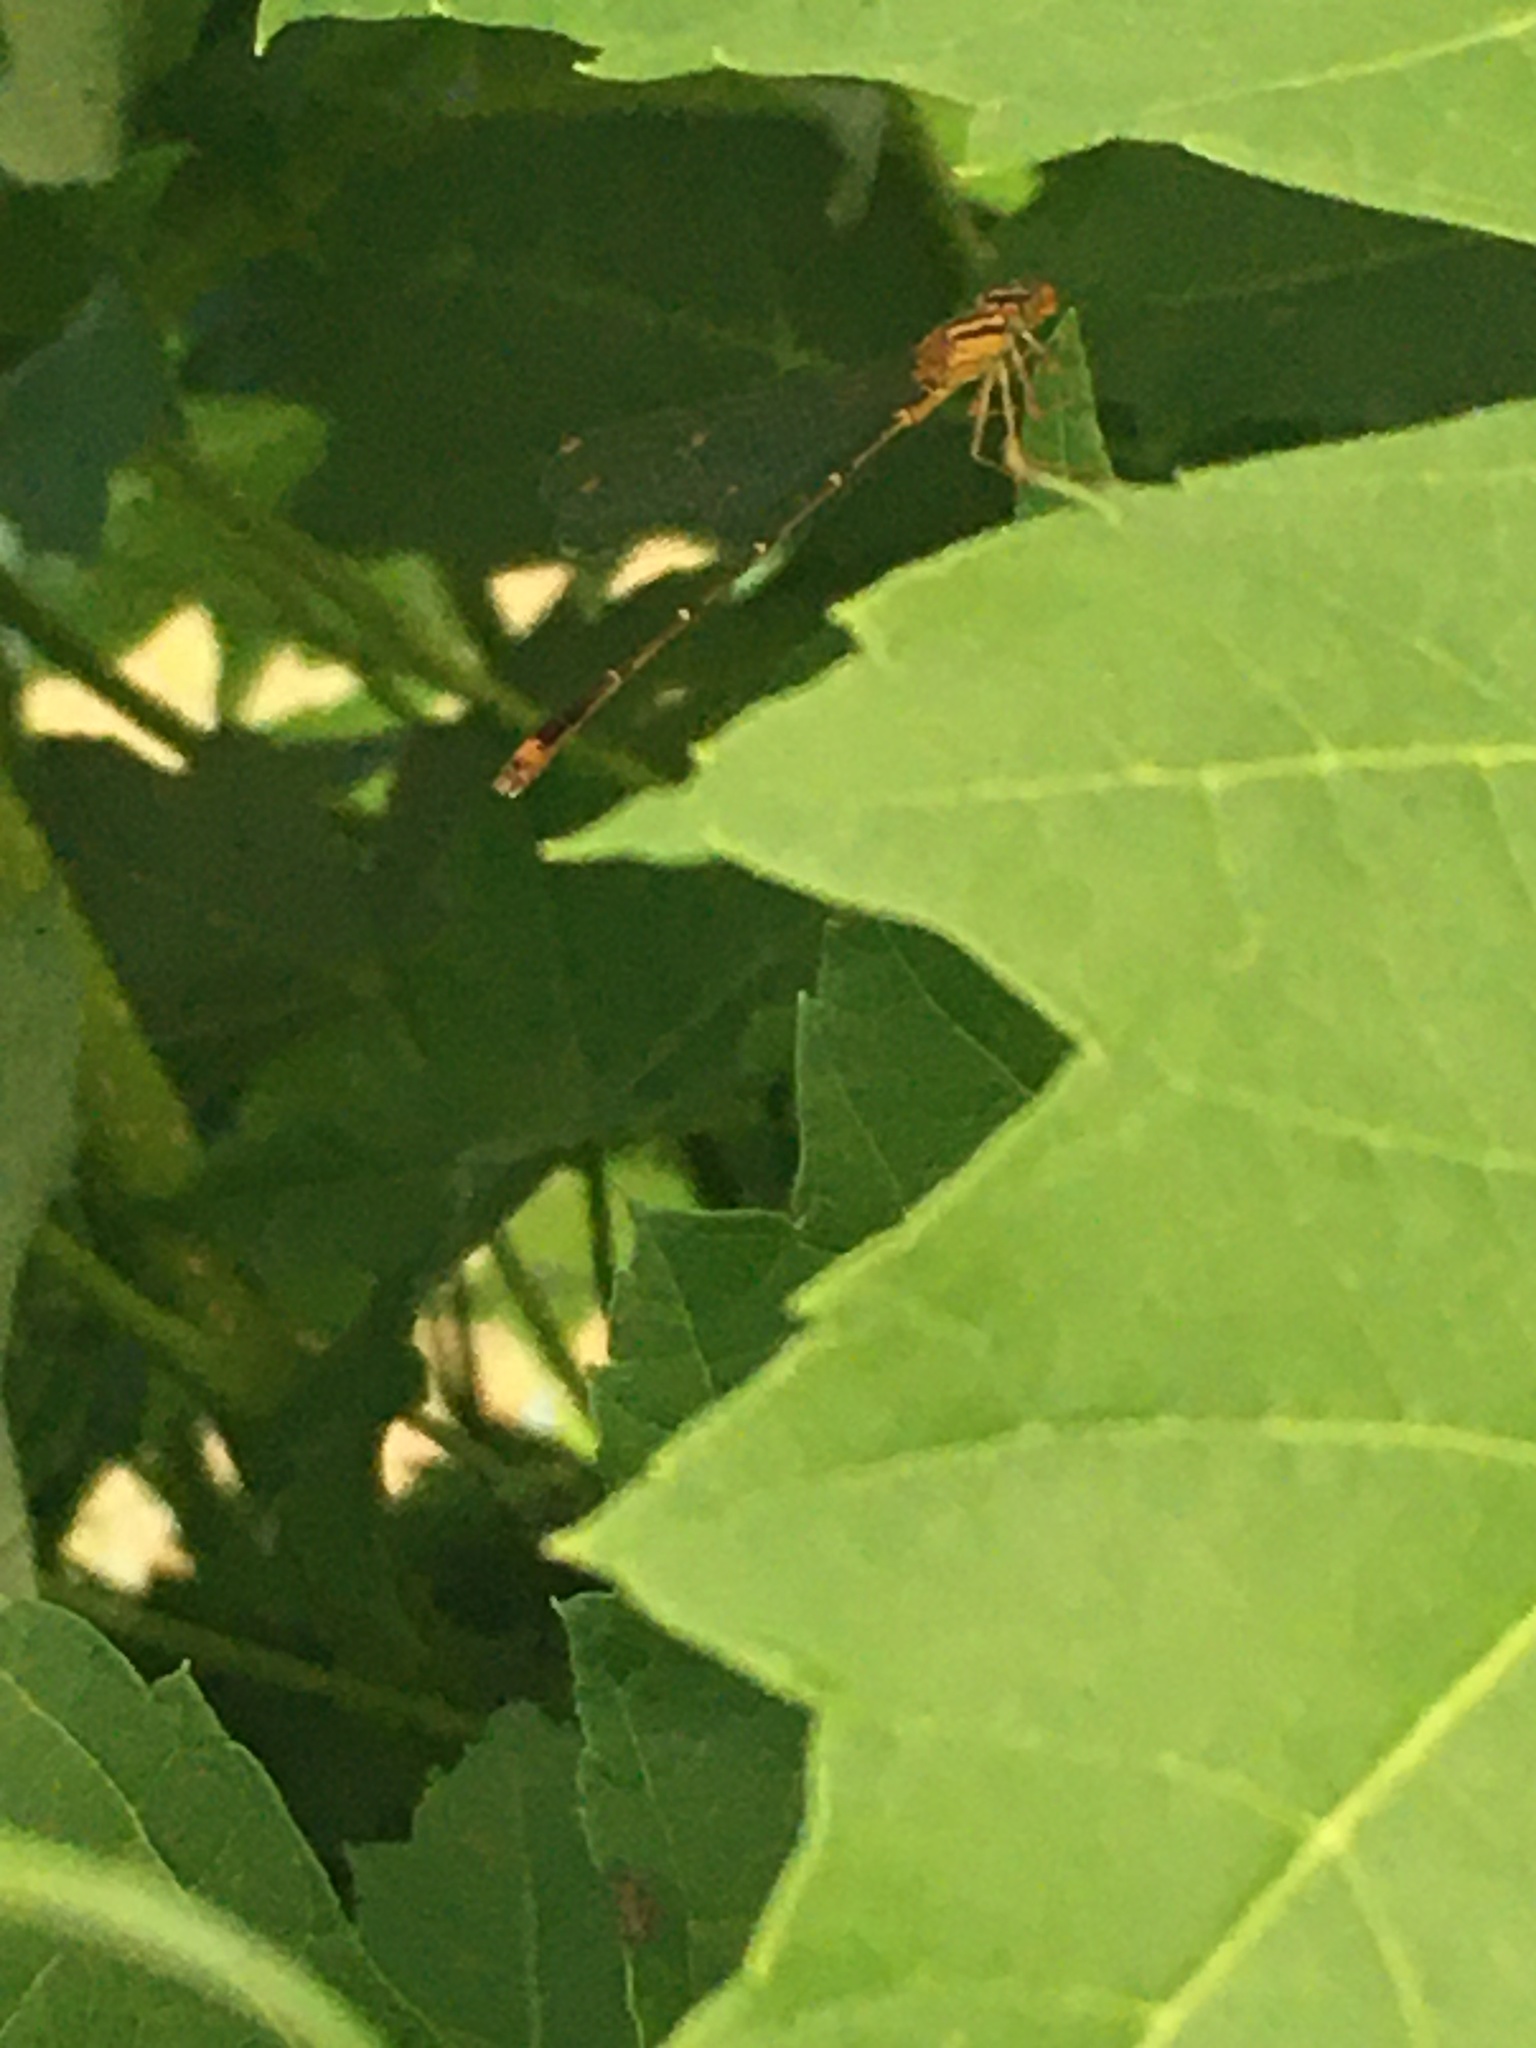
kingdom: Animalia
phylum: Arthropoda
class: Insecta
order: Odonata
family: Coenagrionidae
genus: Enallagma
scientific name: Enallagma signatum
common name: Orange bluet
